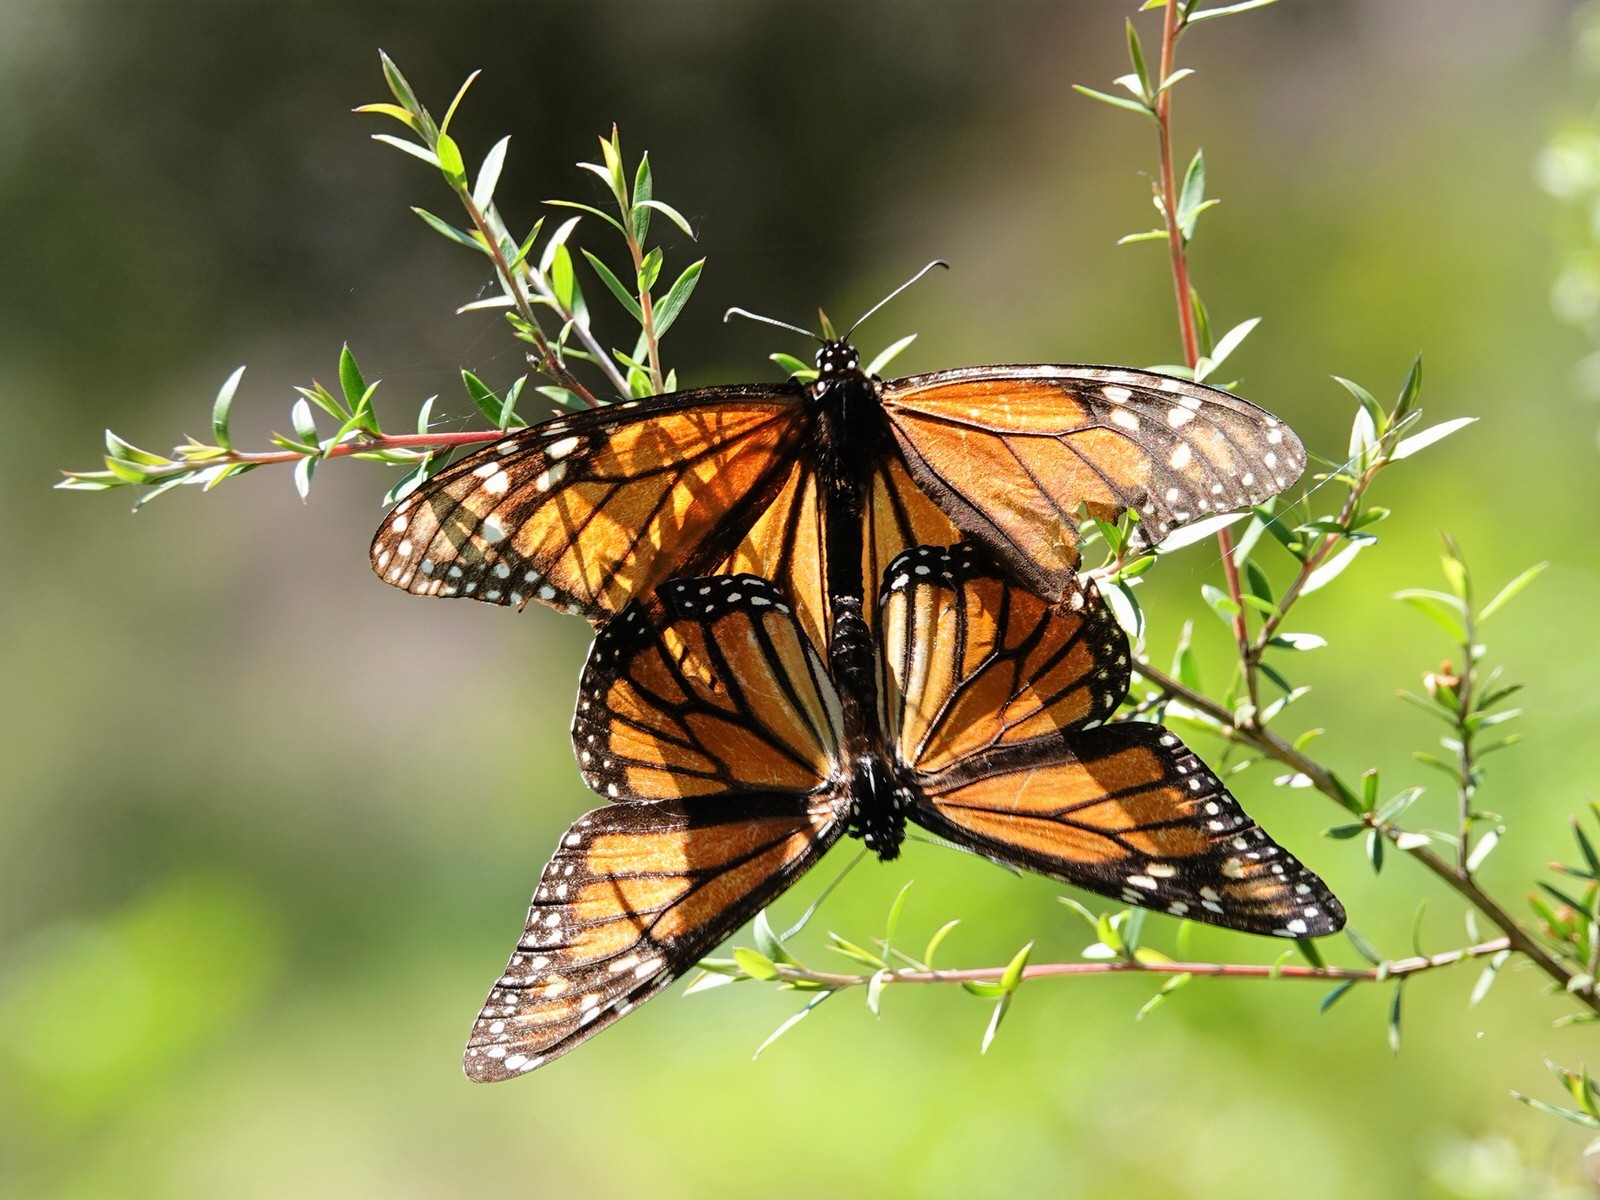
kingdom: Animalia
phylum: Arthropoda
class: Insecta
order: Lepidoptera
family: Nymphalidae
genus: Danaus
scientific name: Danaus plexippus
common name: Monarch
